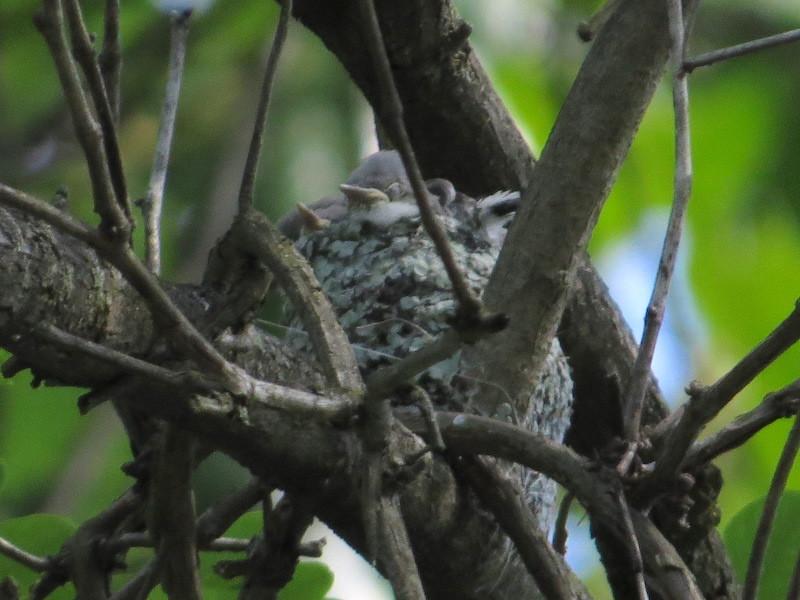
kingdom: Animalia
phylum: Chordata
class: Aves
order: Passeriformes
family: Polioptilidae
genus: Polioptila
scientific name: Polioptila caerulea
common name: Blue-gray gnatcatcher
